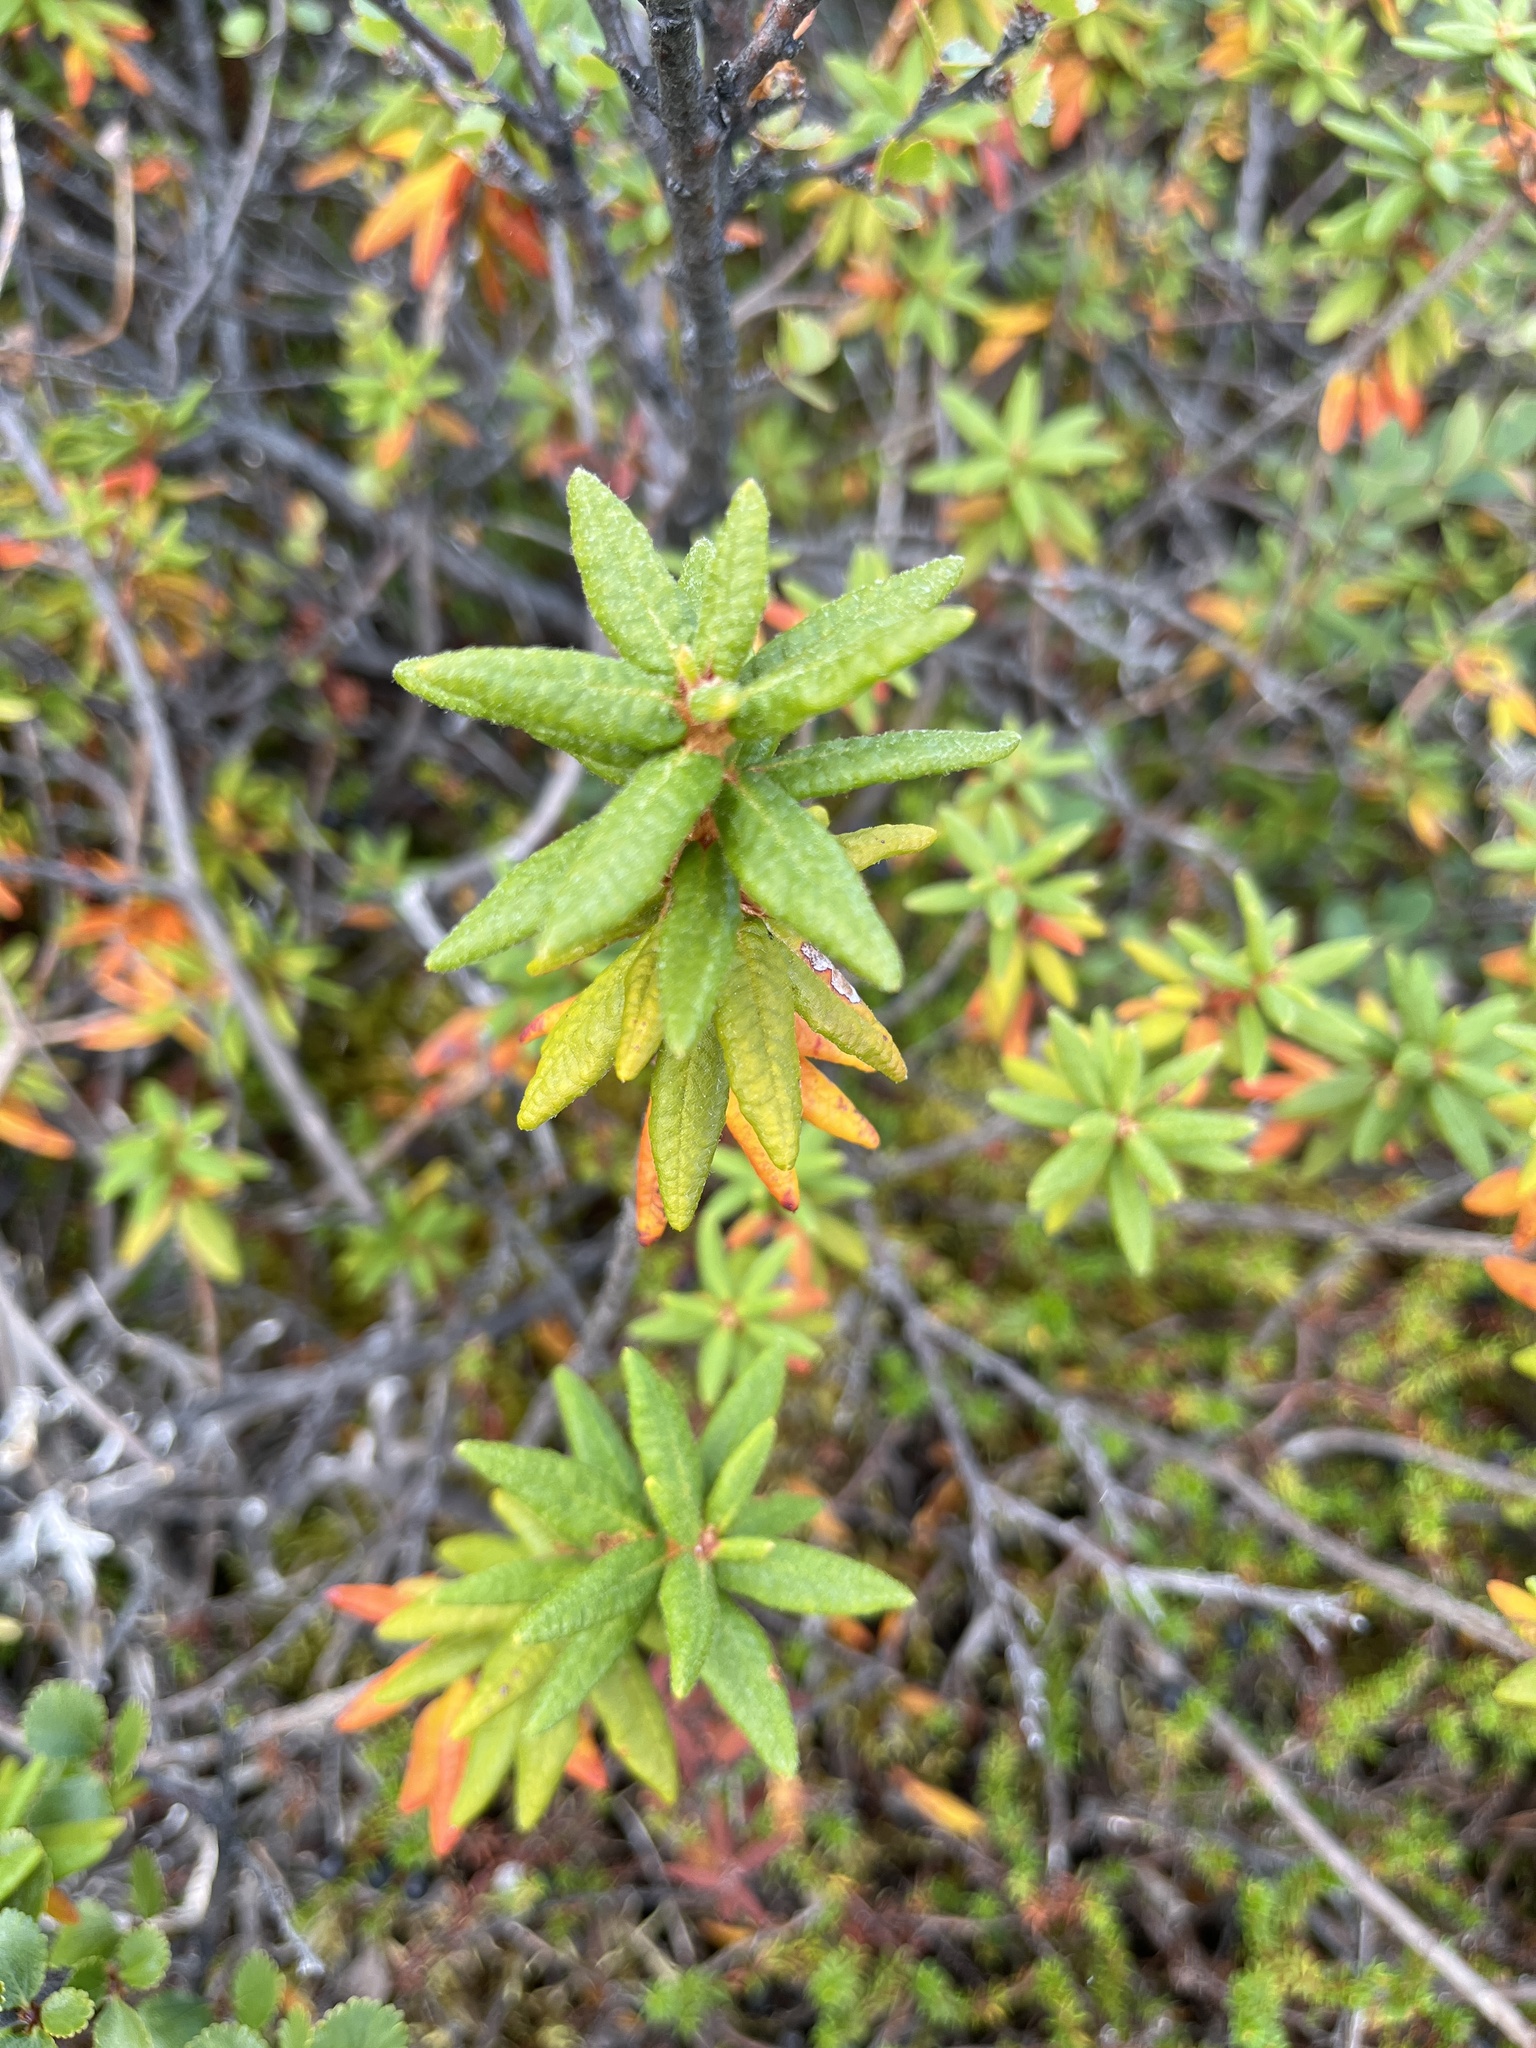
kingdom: Plantae
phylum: Tracheophyta
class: Magnoliopsida
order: Ericales
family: Ericaceae
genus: Rhododendron
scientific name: Rhododendron groenlandicum
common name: Bog labrador tea
